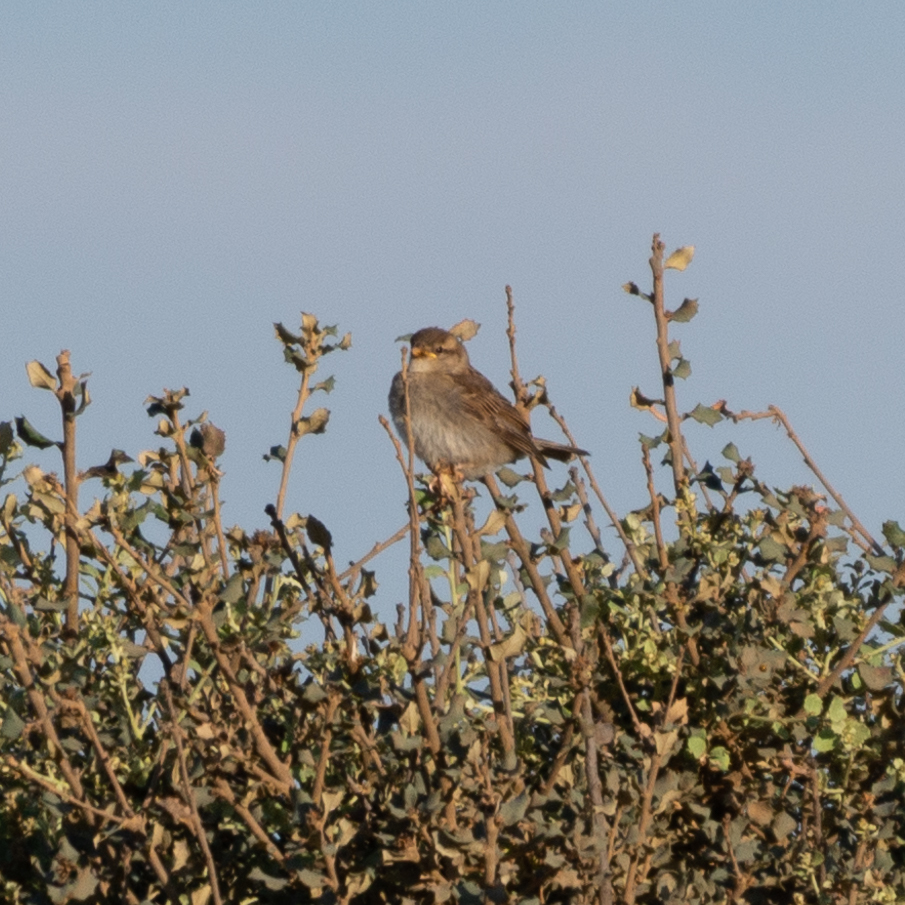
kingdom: Animalia
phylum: Chordata
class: Aves
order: Passeriformes
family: Passeridae
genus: Passer
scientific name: Passer domesticus
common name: House sparrow
